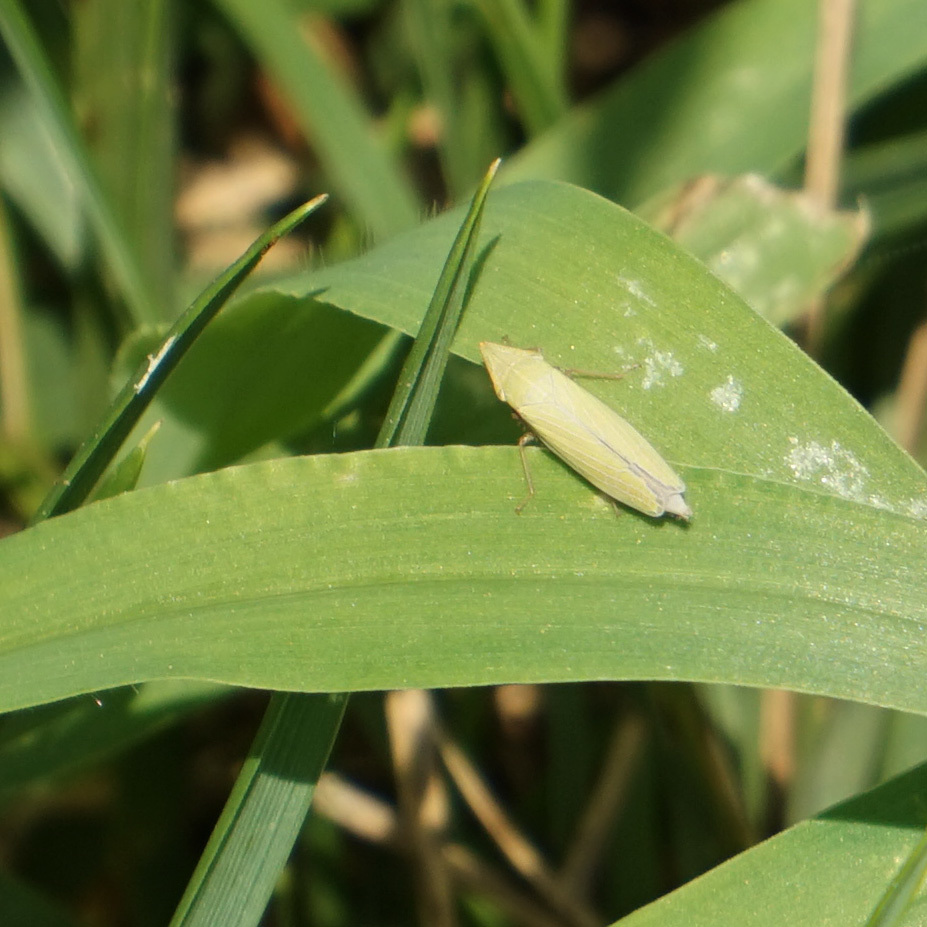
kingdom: Animalia
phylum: Arthropoda
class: Insecta
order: Hemiptera
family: Cicadellidae
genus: Draeculacephala
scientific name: Draeculacephala antica
